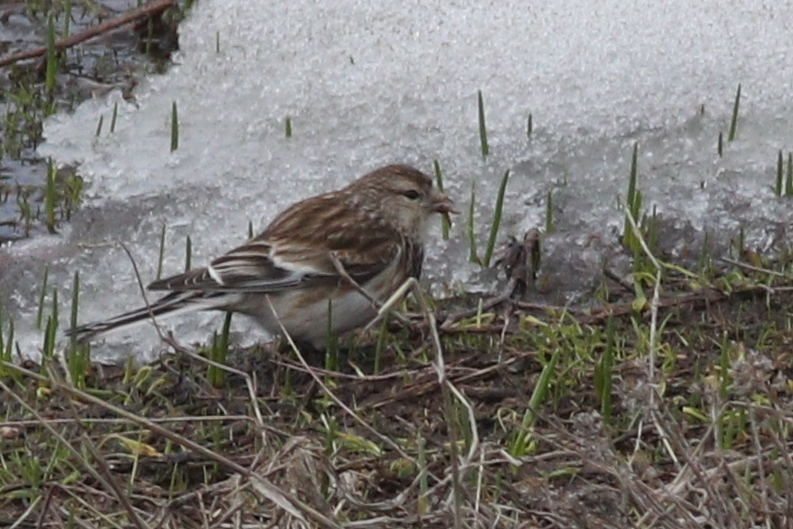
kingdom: Animalia
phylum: Chordata
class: Aves
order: Passeriformes
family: Fringillidae
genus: Linaria
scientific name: Linaria flavirostris
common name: Twite
